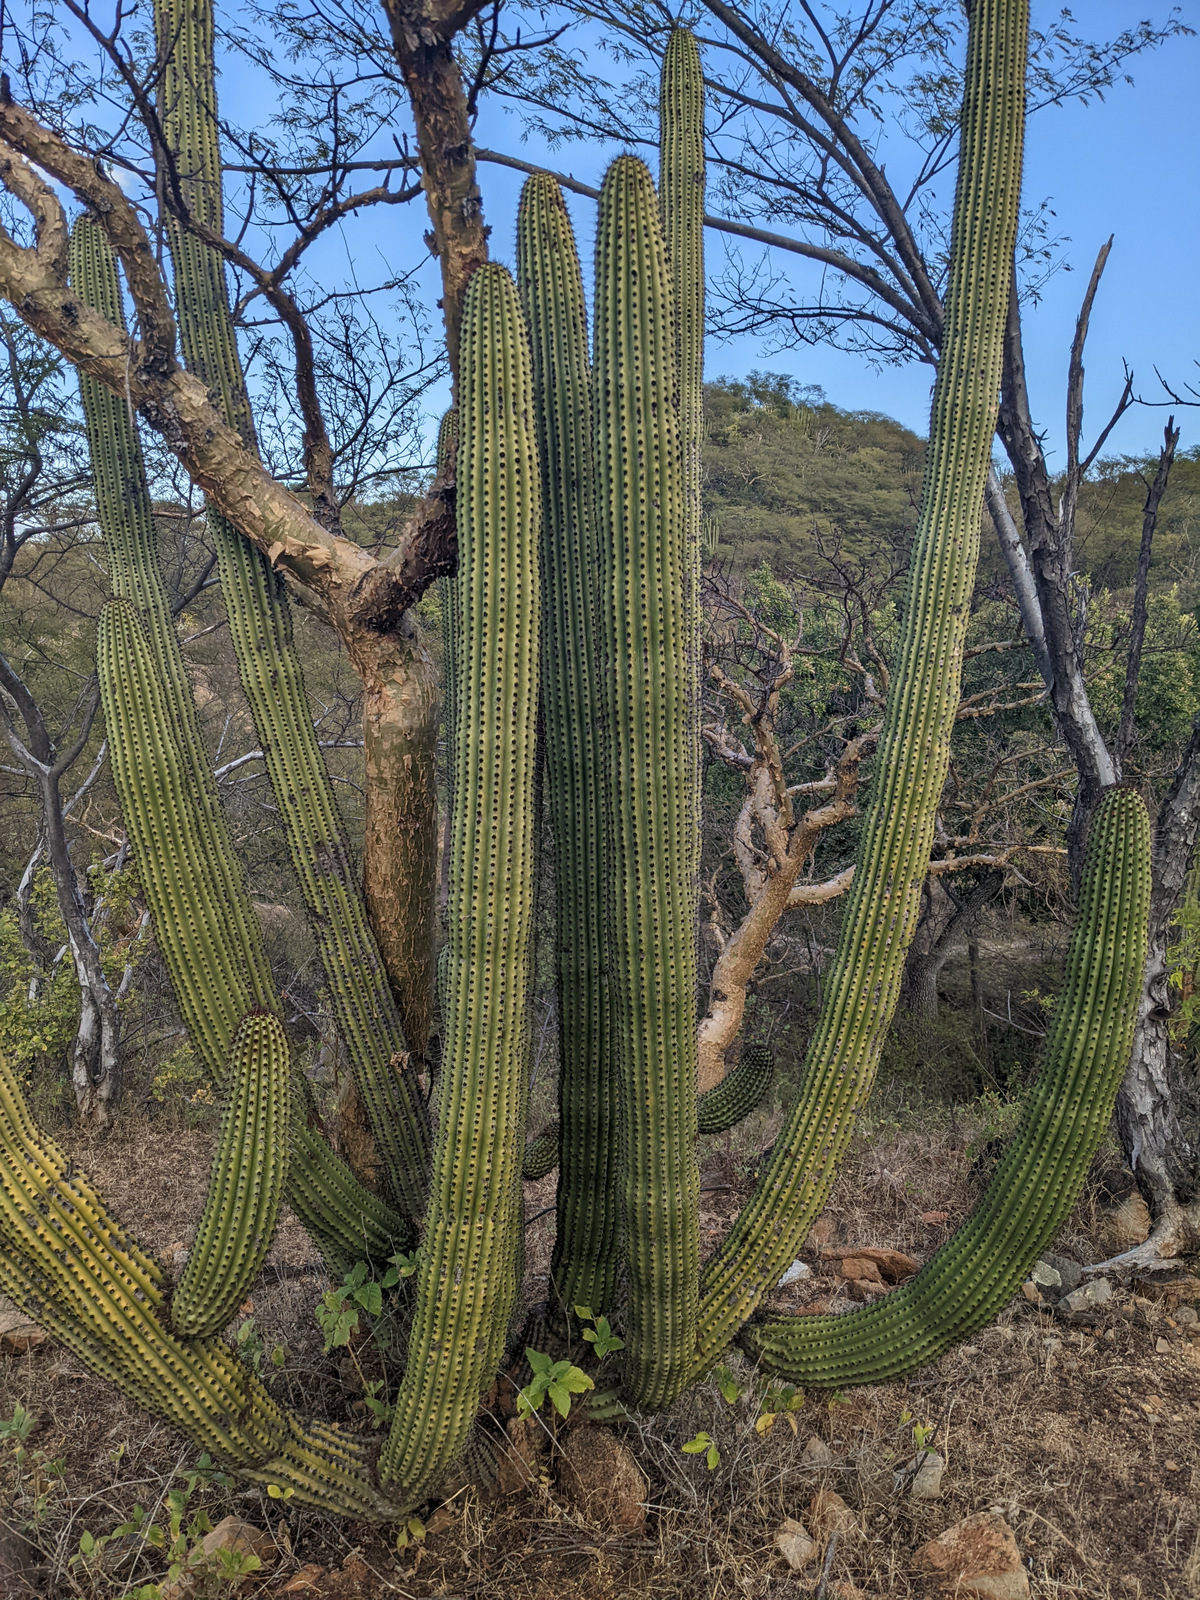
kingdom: Plantae
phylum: Tracheophyta
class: Magnoliopsida
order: Caryophyllales
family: Cactaceae
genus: Stenocereus
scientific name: Stenocereus thurberi
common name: Organ pipe cactus
